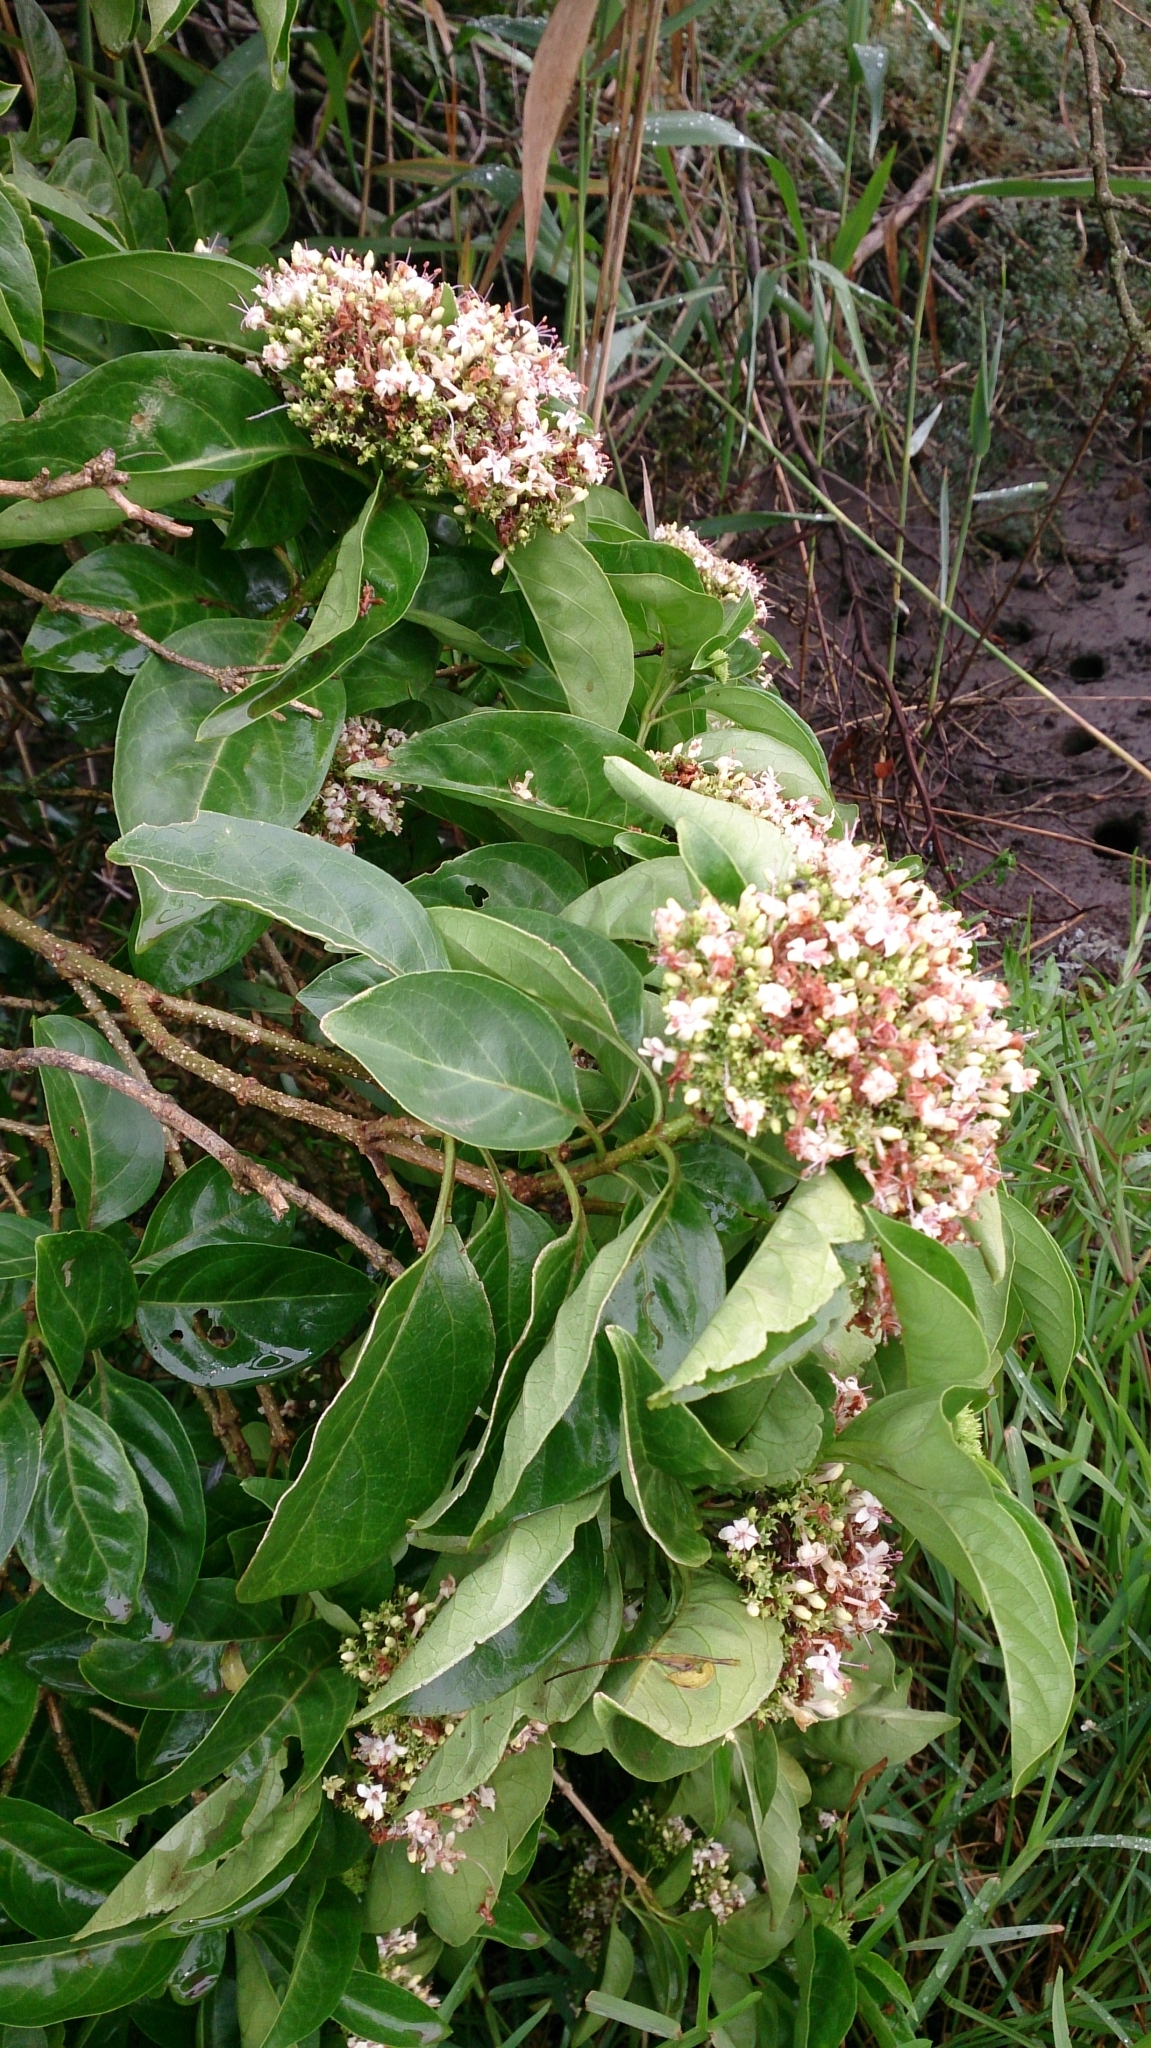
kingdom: Plantae
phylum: Tracheophyta
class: Magnoliopsida
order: Lamiales
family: Lamiaceae
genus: Volkameria
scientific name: Volkameria glabra
